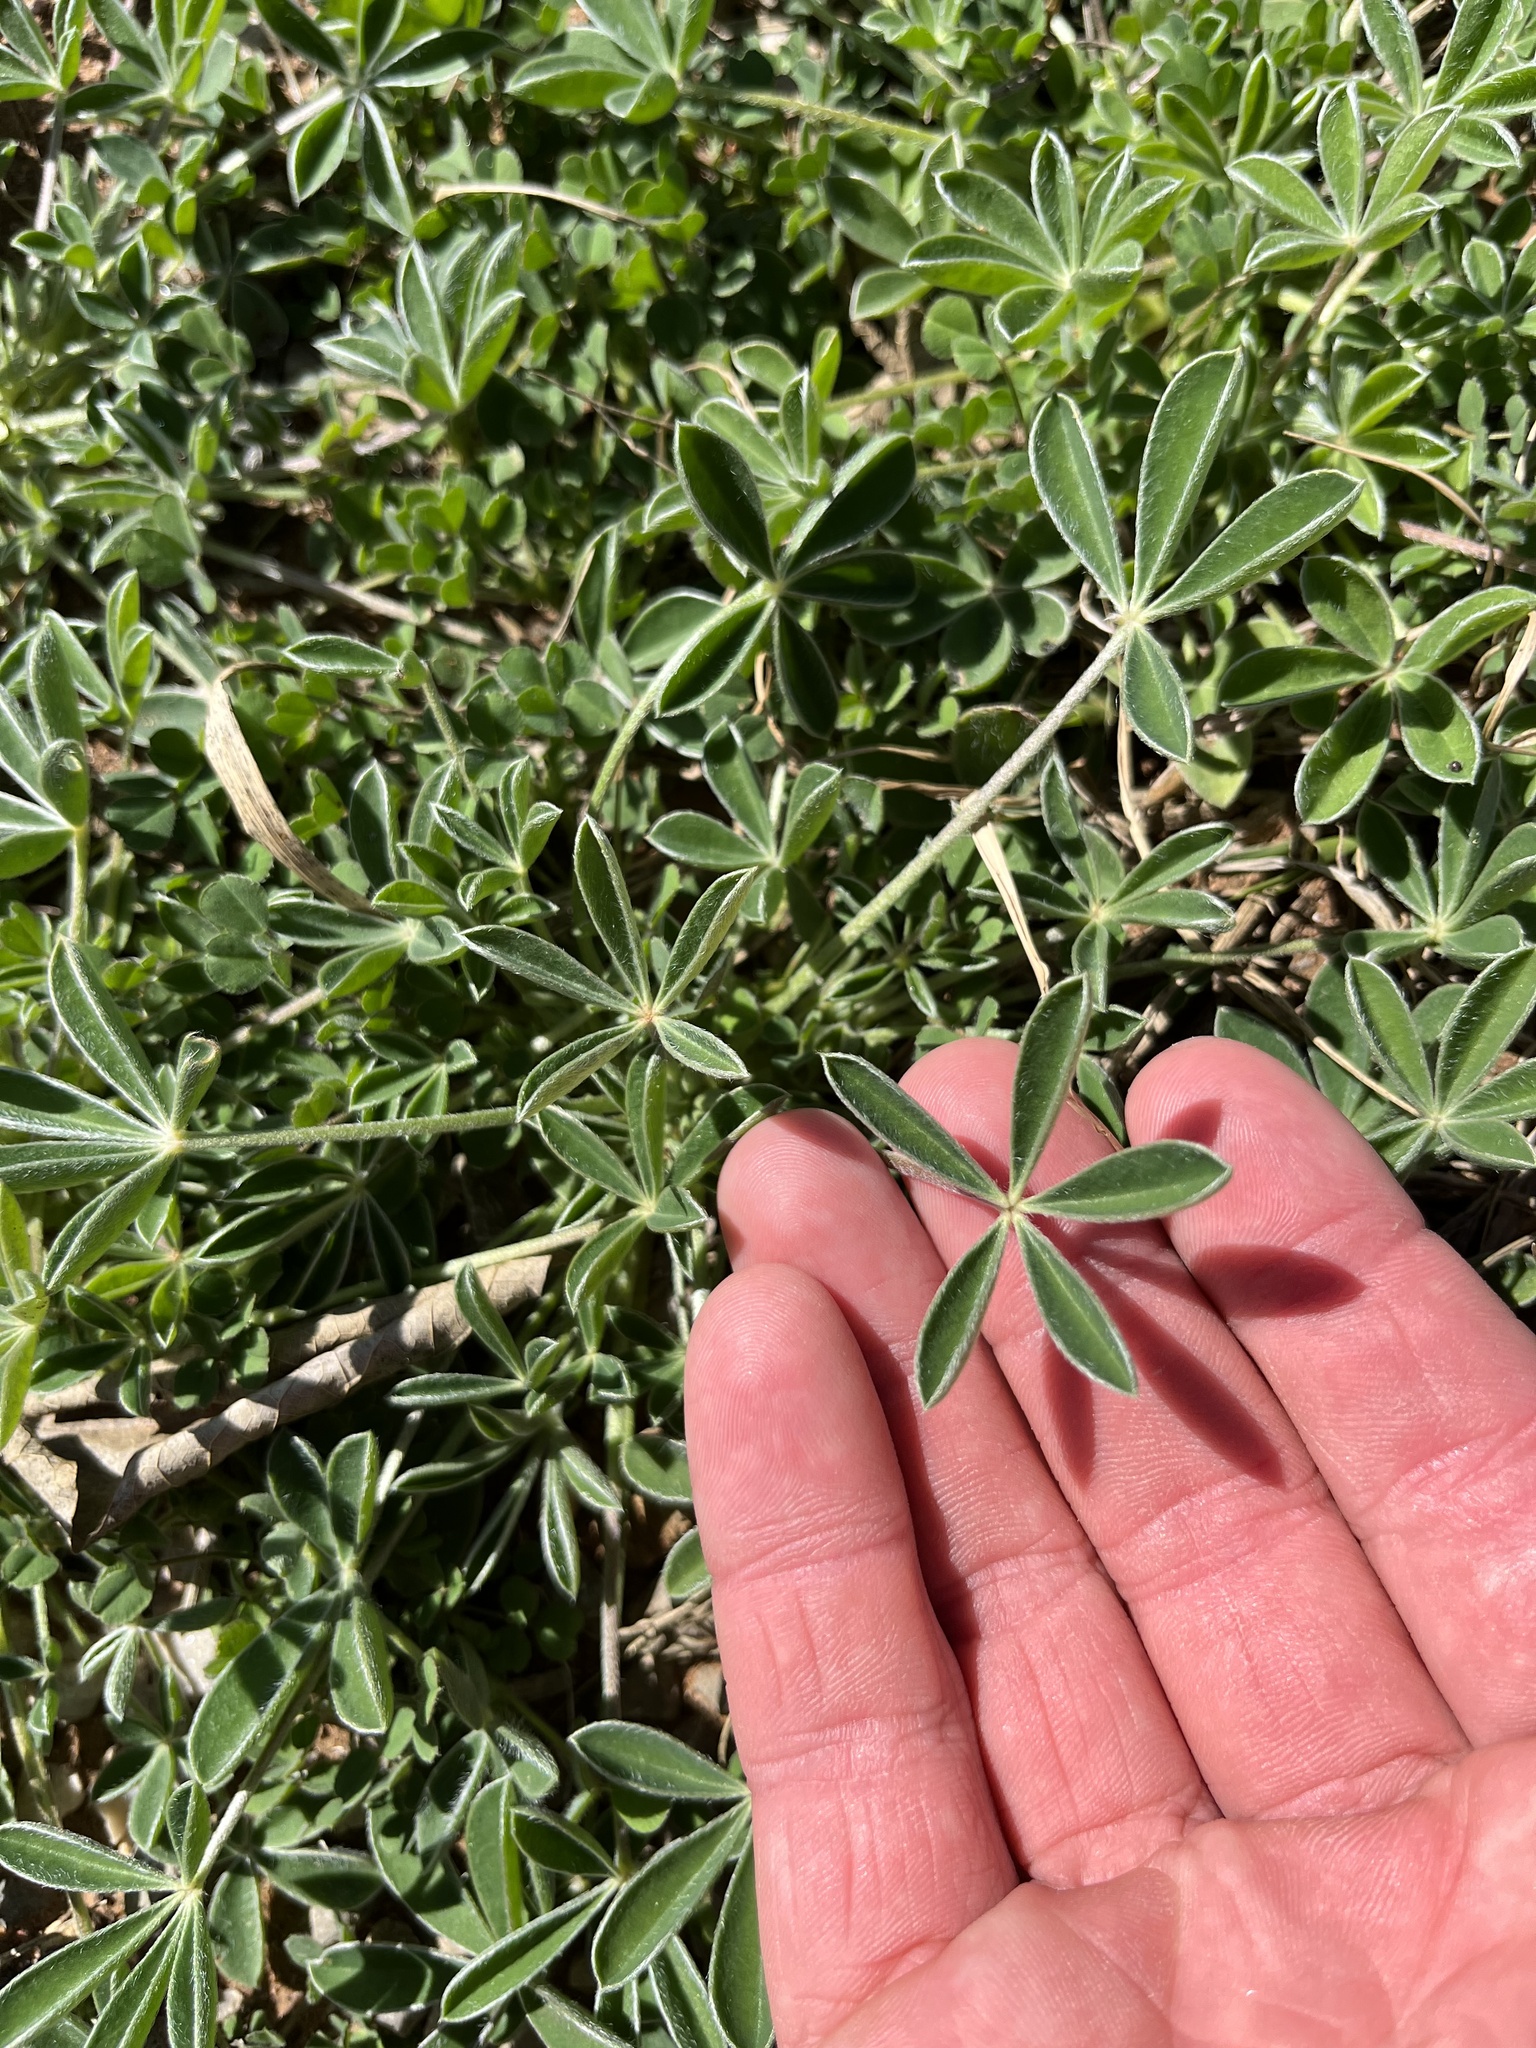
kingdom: Plantae
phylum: Tracheophyta
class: Magnoliopsida
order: Fabales
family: Fabaceae
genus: Lupinus
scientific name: Lupinus texensis
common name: Texas bluebonnet
